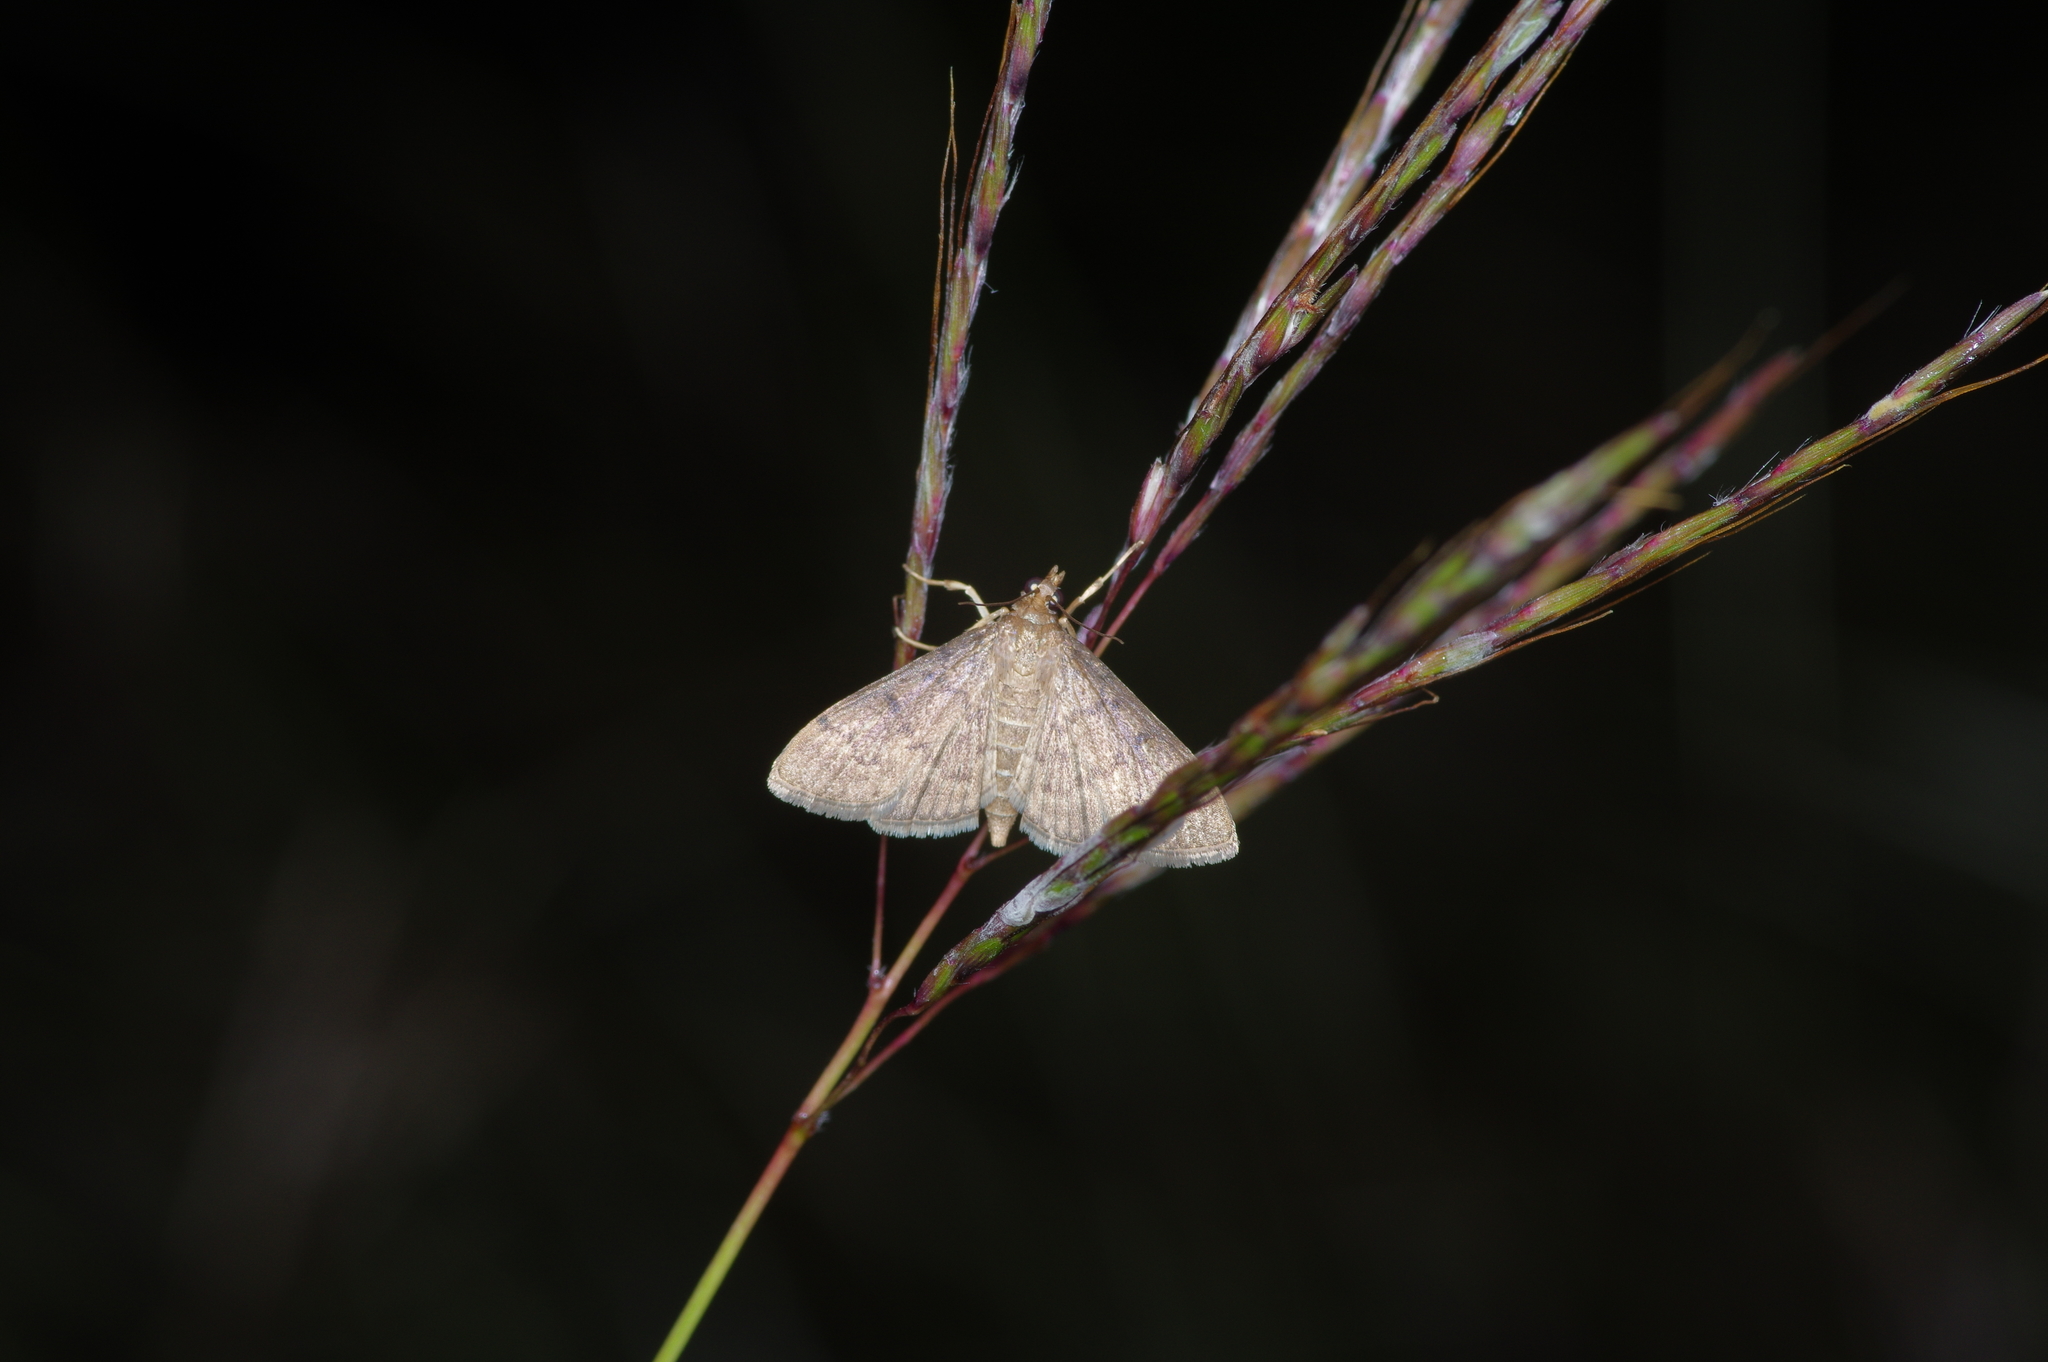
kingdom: Animalia
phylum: Arthropoda
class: Insecta
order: Lepidoptera
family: Crambidae
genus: Herpetogramma
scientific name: Herpetogramma phaeopteralis
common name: Dusky herpetogramma moth
